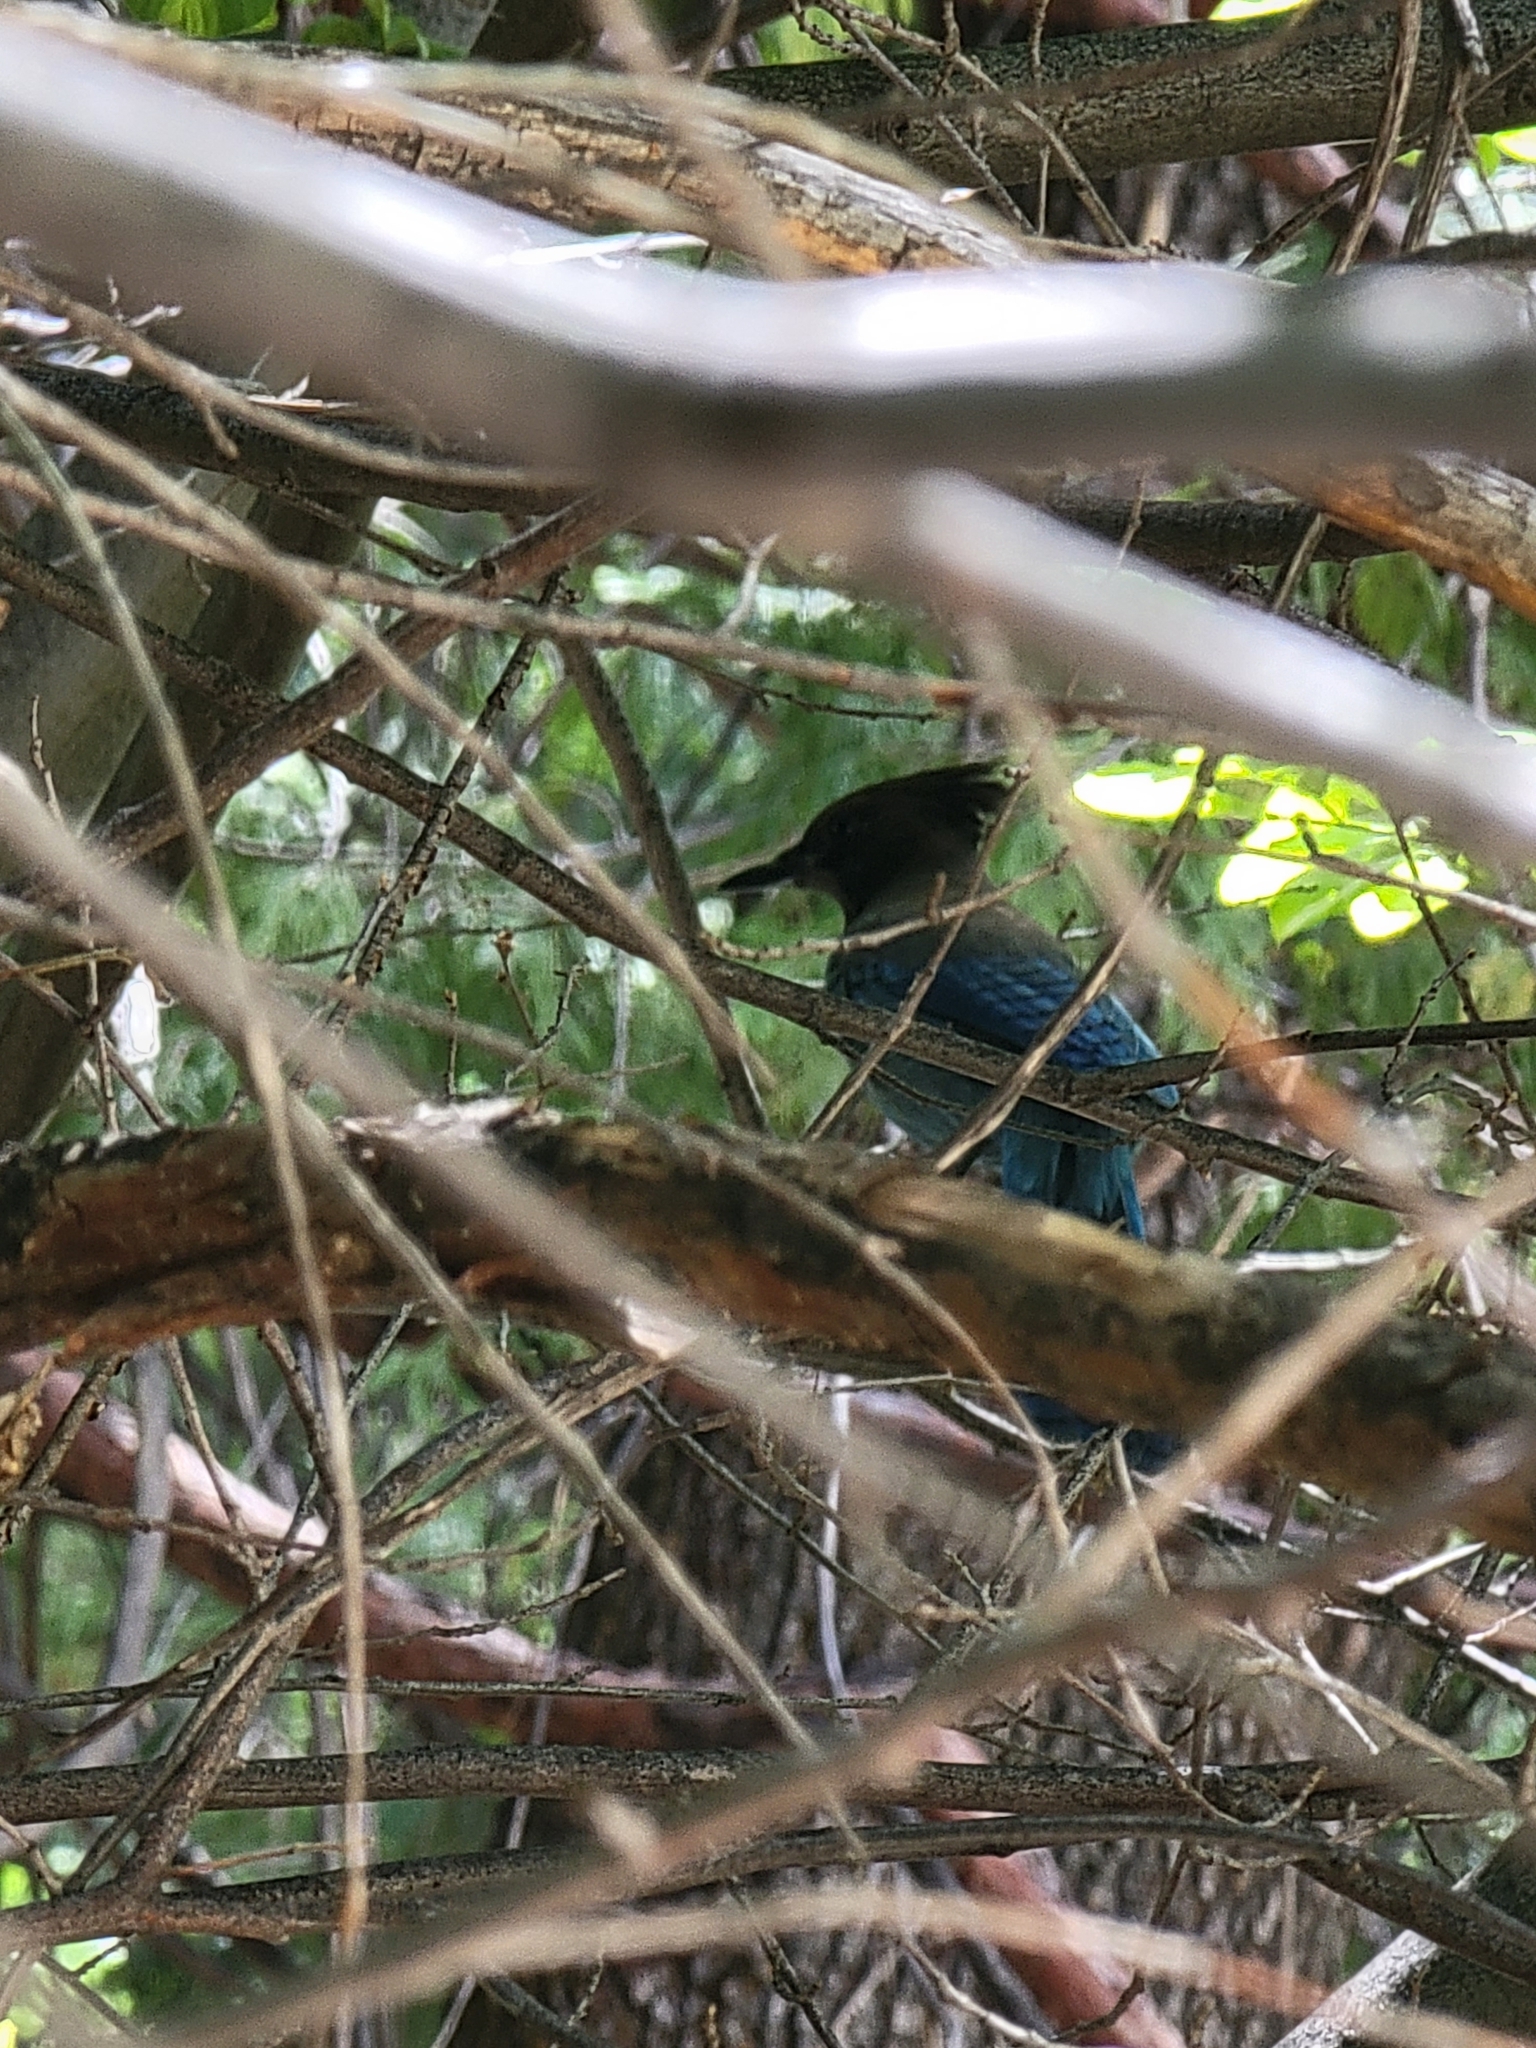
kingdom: Animalia
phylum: Chordata
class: Aves
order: Passeriformes
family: Corvidae
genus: Cyanocitta
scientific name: Cyanocitta stelleri
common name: Steller's jay
